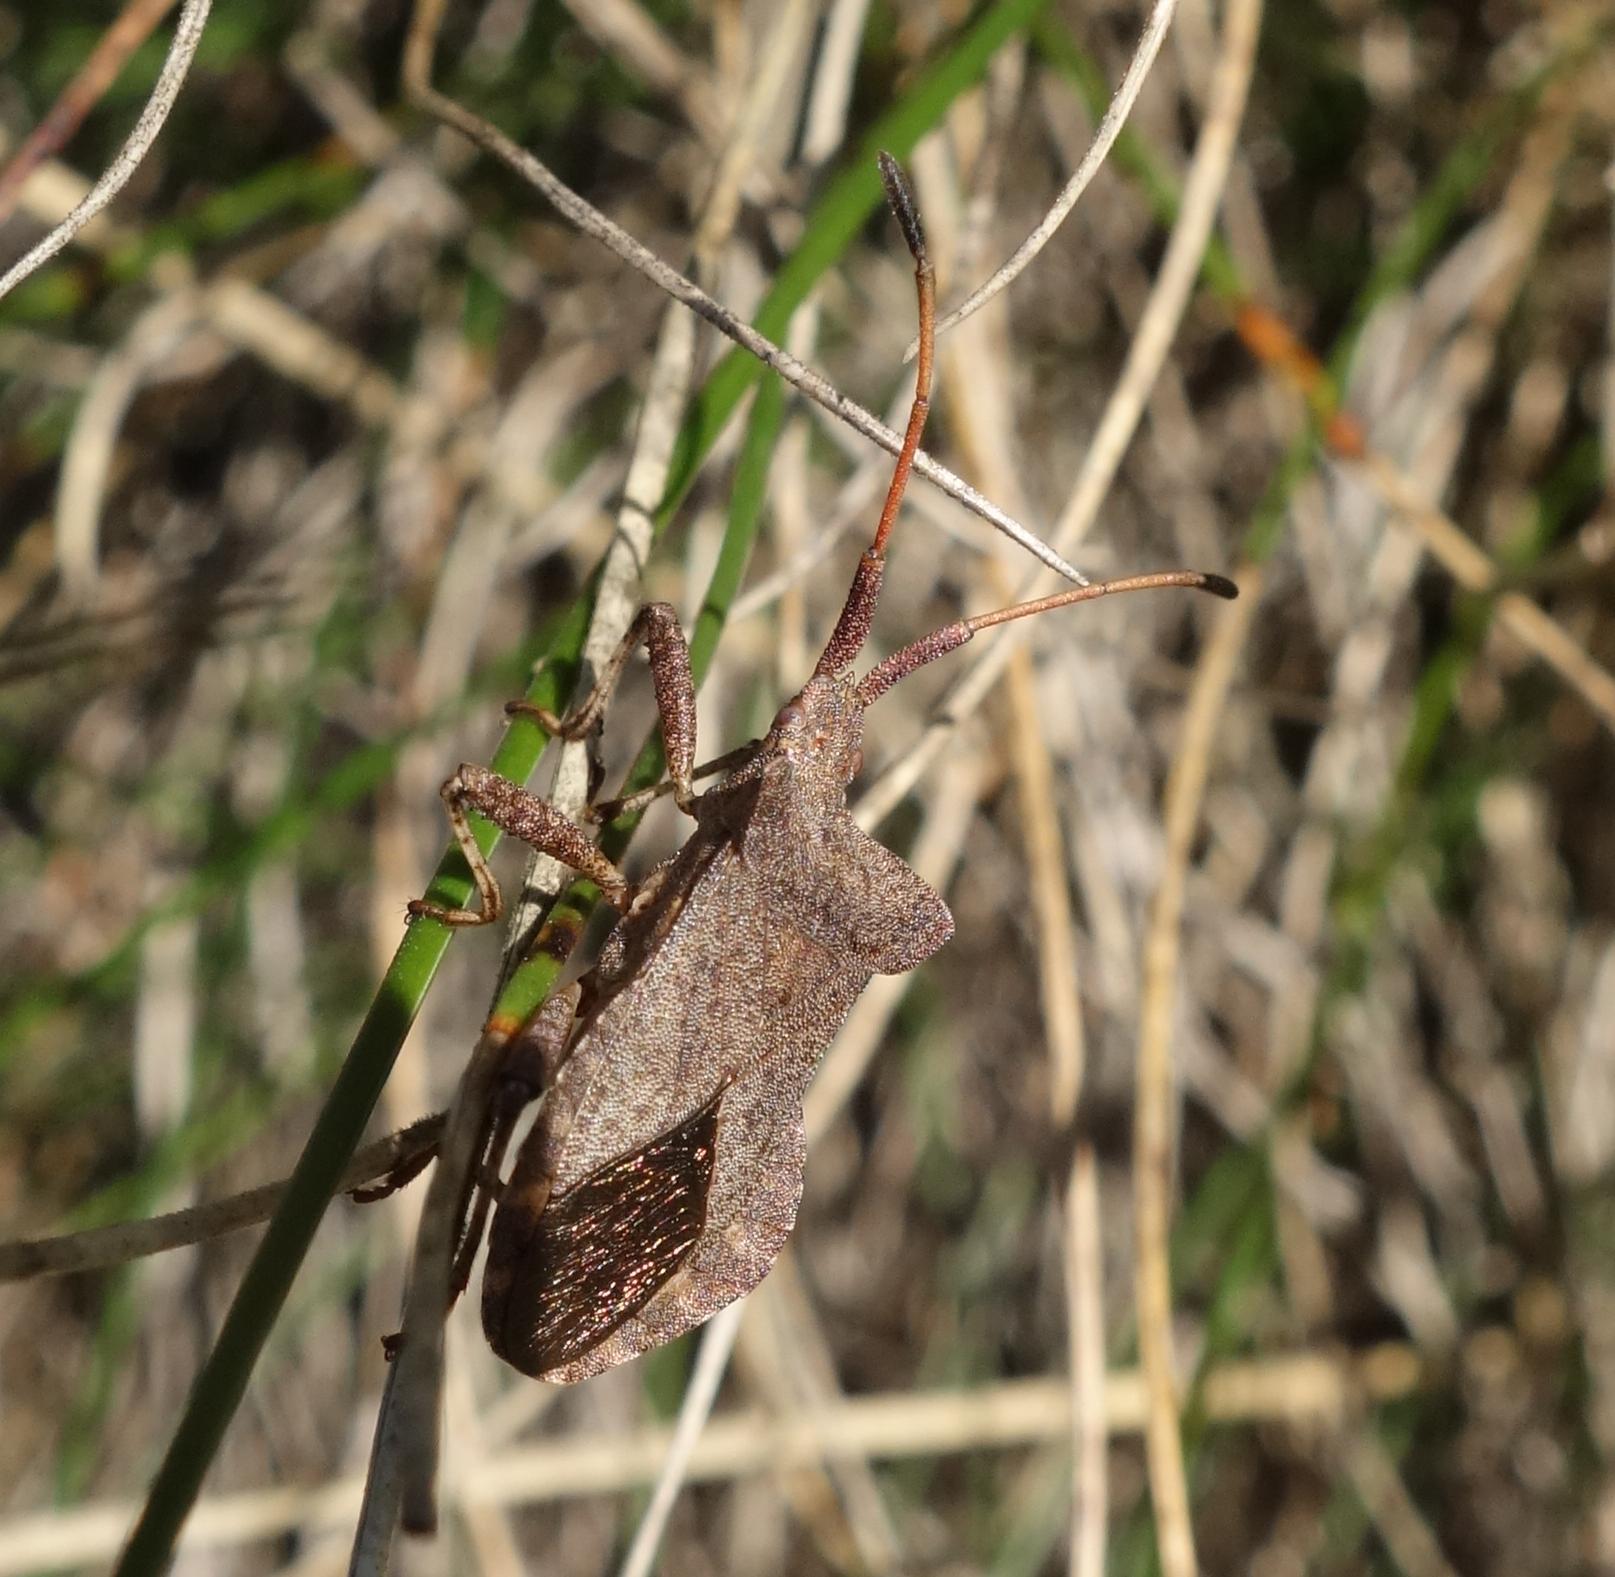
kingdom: Animalia
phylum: Arthropoda
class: Insecta
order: Hemiptera
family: Coreidae
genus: Coreus
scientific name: Coreus marginatus
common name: Dock bug
